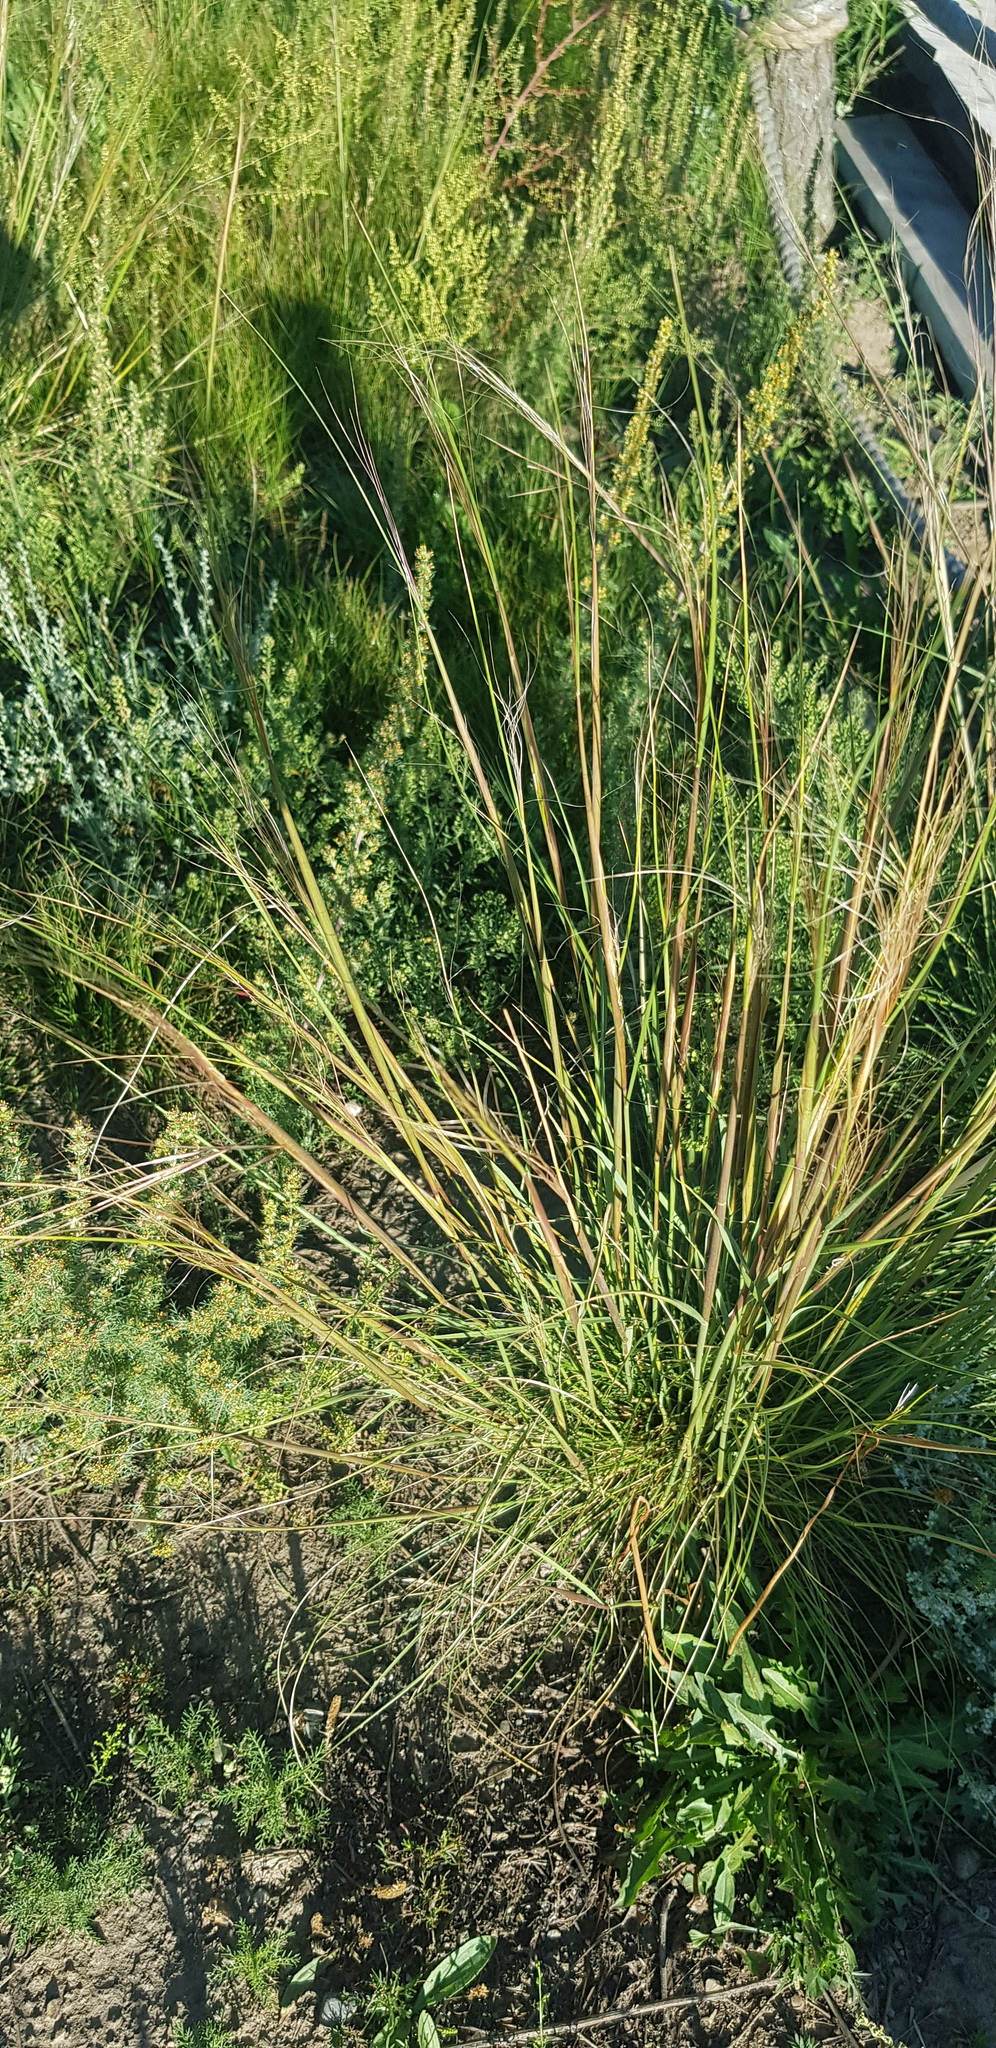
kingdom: Plantae
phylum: Tracheophyta
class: Liliopsida
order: Poales
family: Poaceae
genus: Stipa
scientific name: Stipa krylovii
